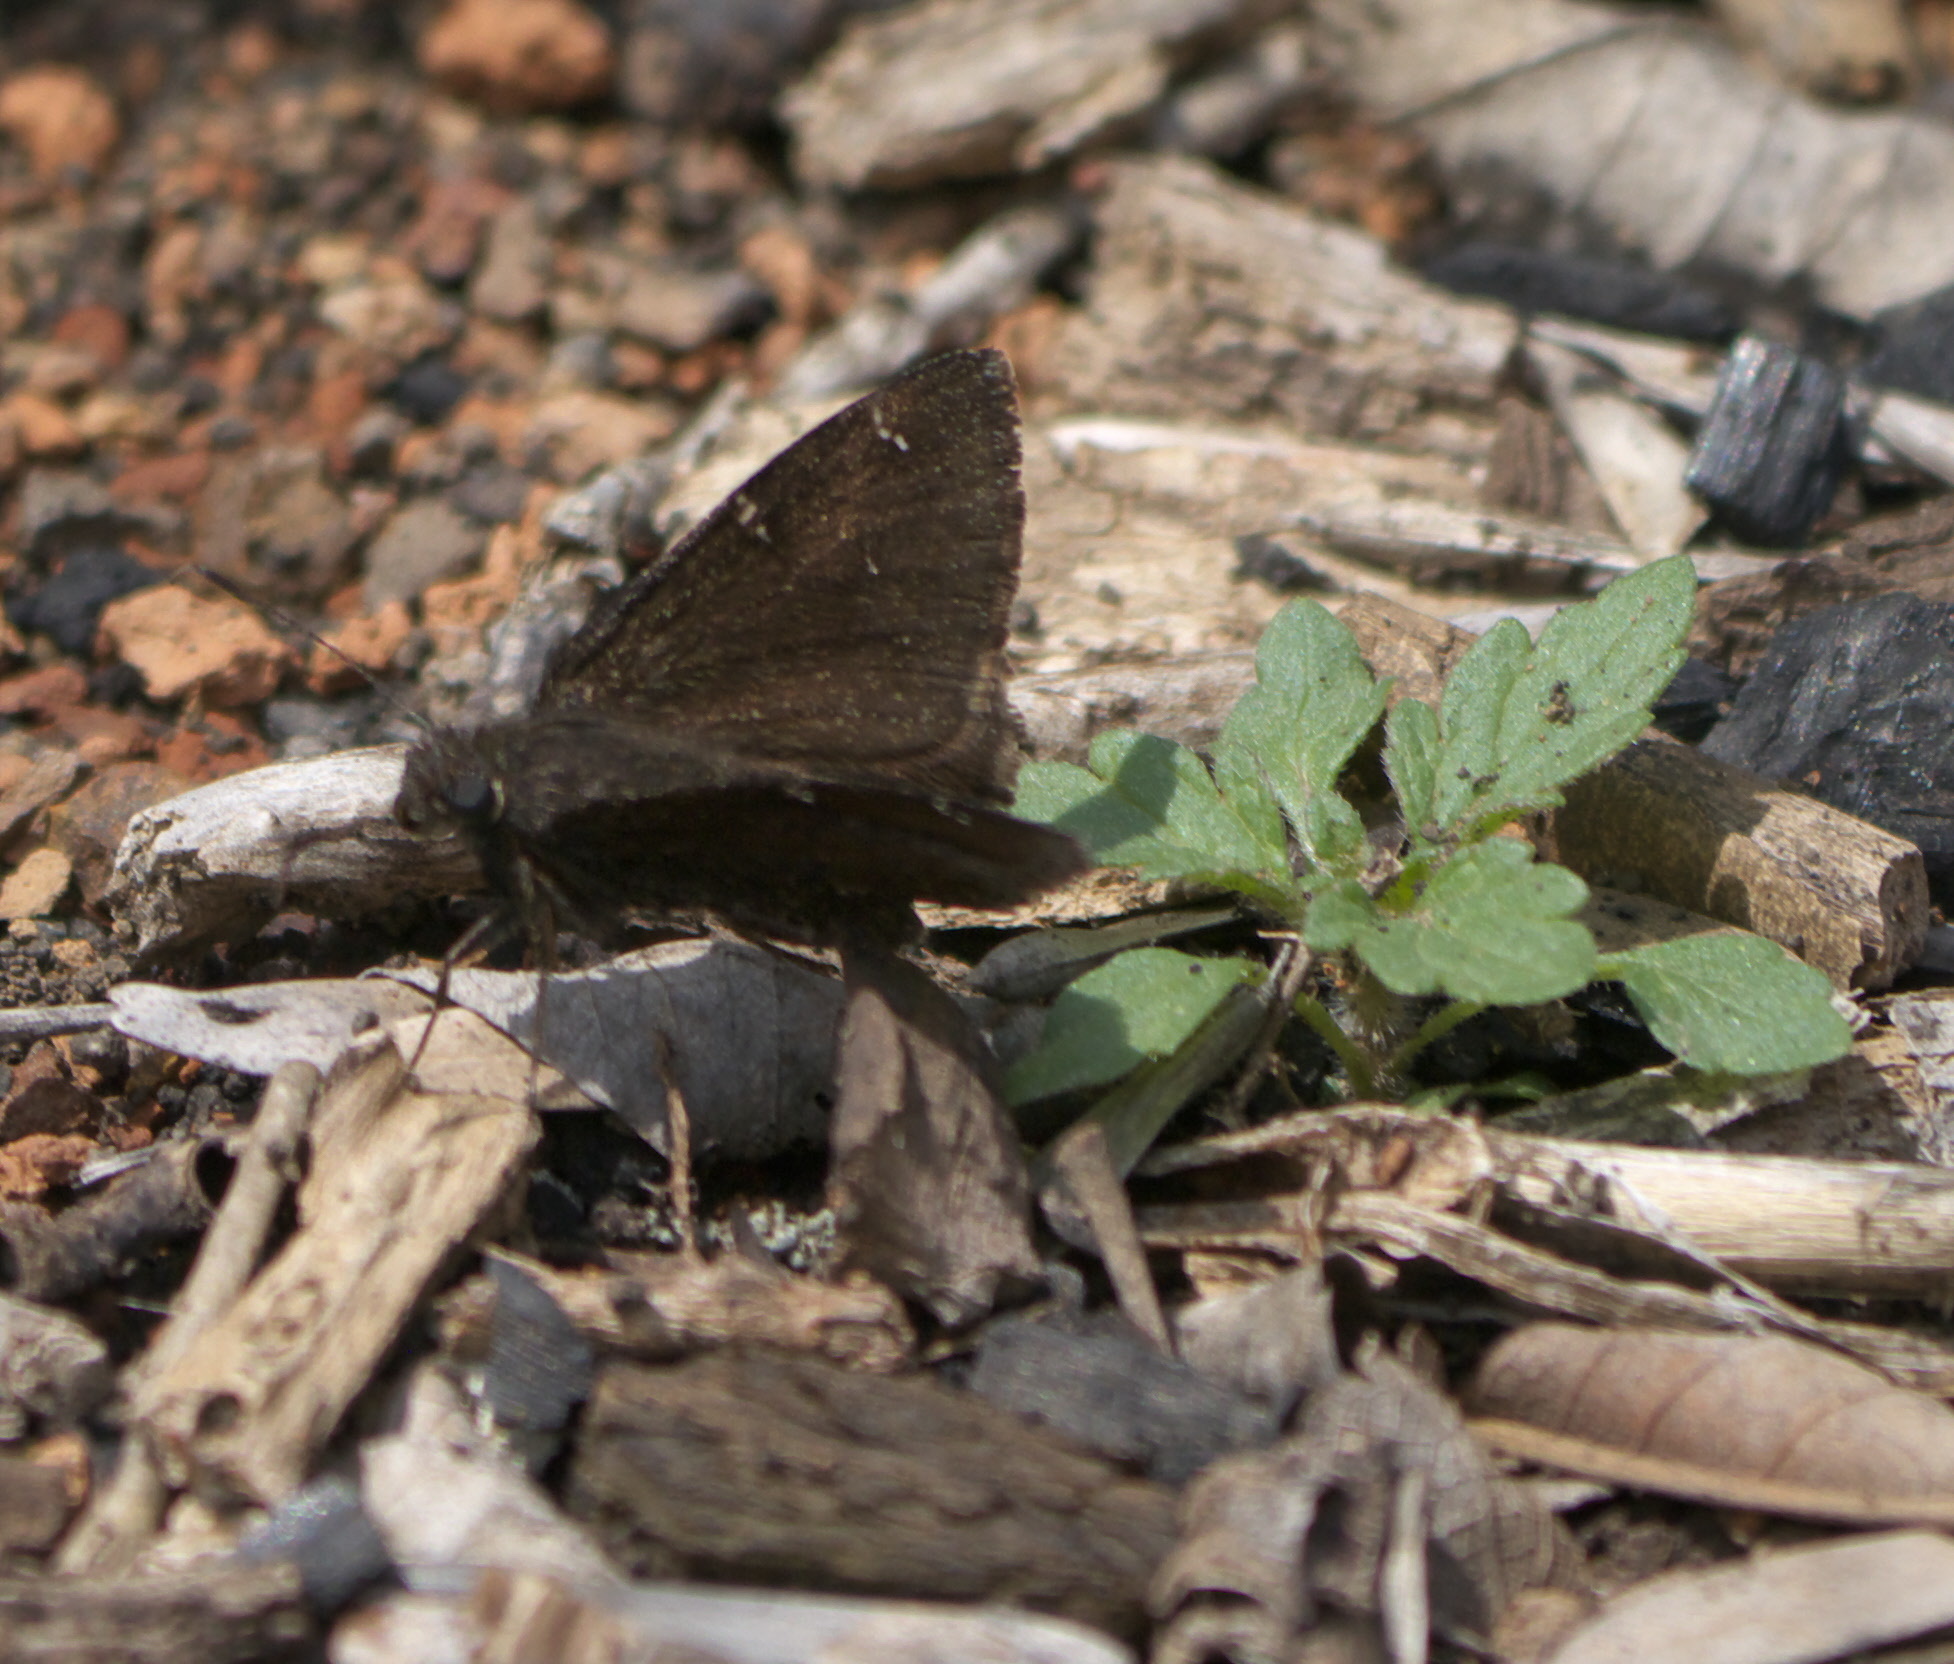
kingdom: Animalia
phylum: Arthropoda
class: Insecta
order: Lepidoptera
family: Hesperiidae
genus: Thorybes
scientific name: Thorybes pylades
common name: Northern cloudywing
